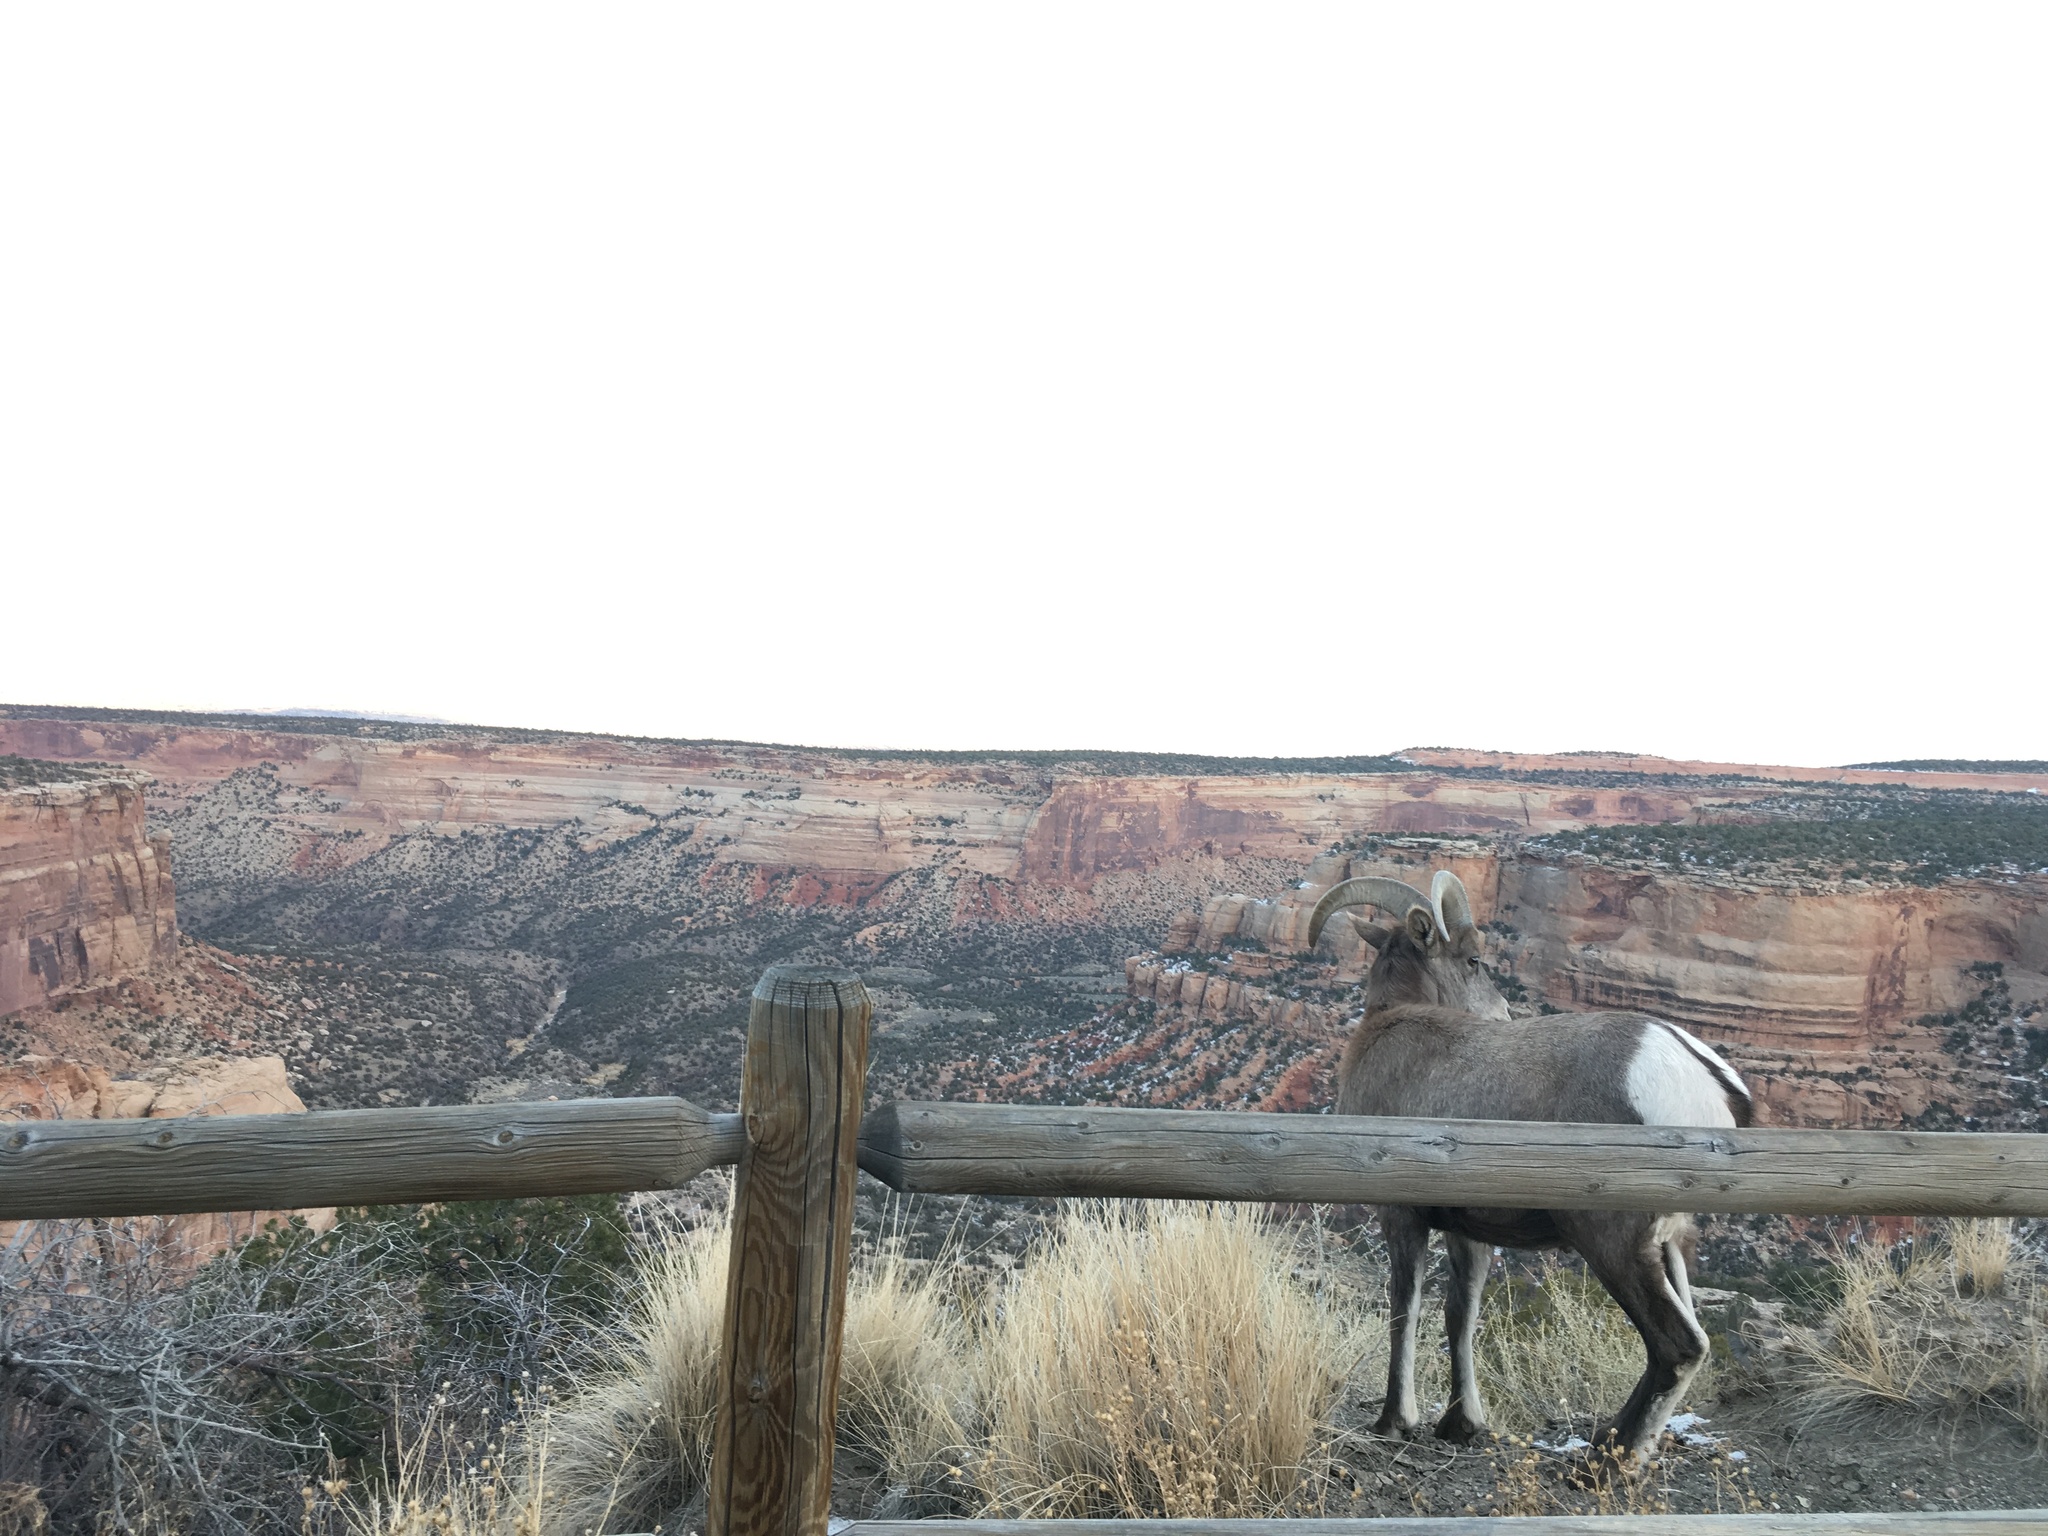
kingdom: Animalia
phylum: Chordata
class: Mammalia
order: Artiodactyla
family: Bovidae
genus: Ovis
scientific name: Ovis canadensis
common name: Bighorn sheep
